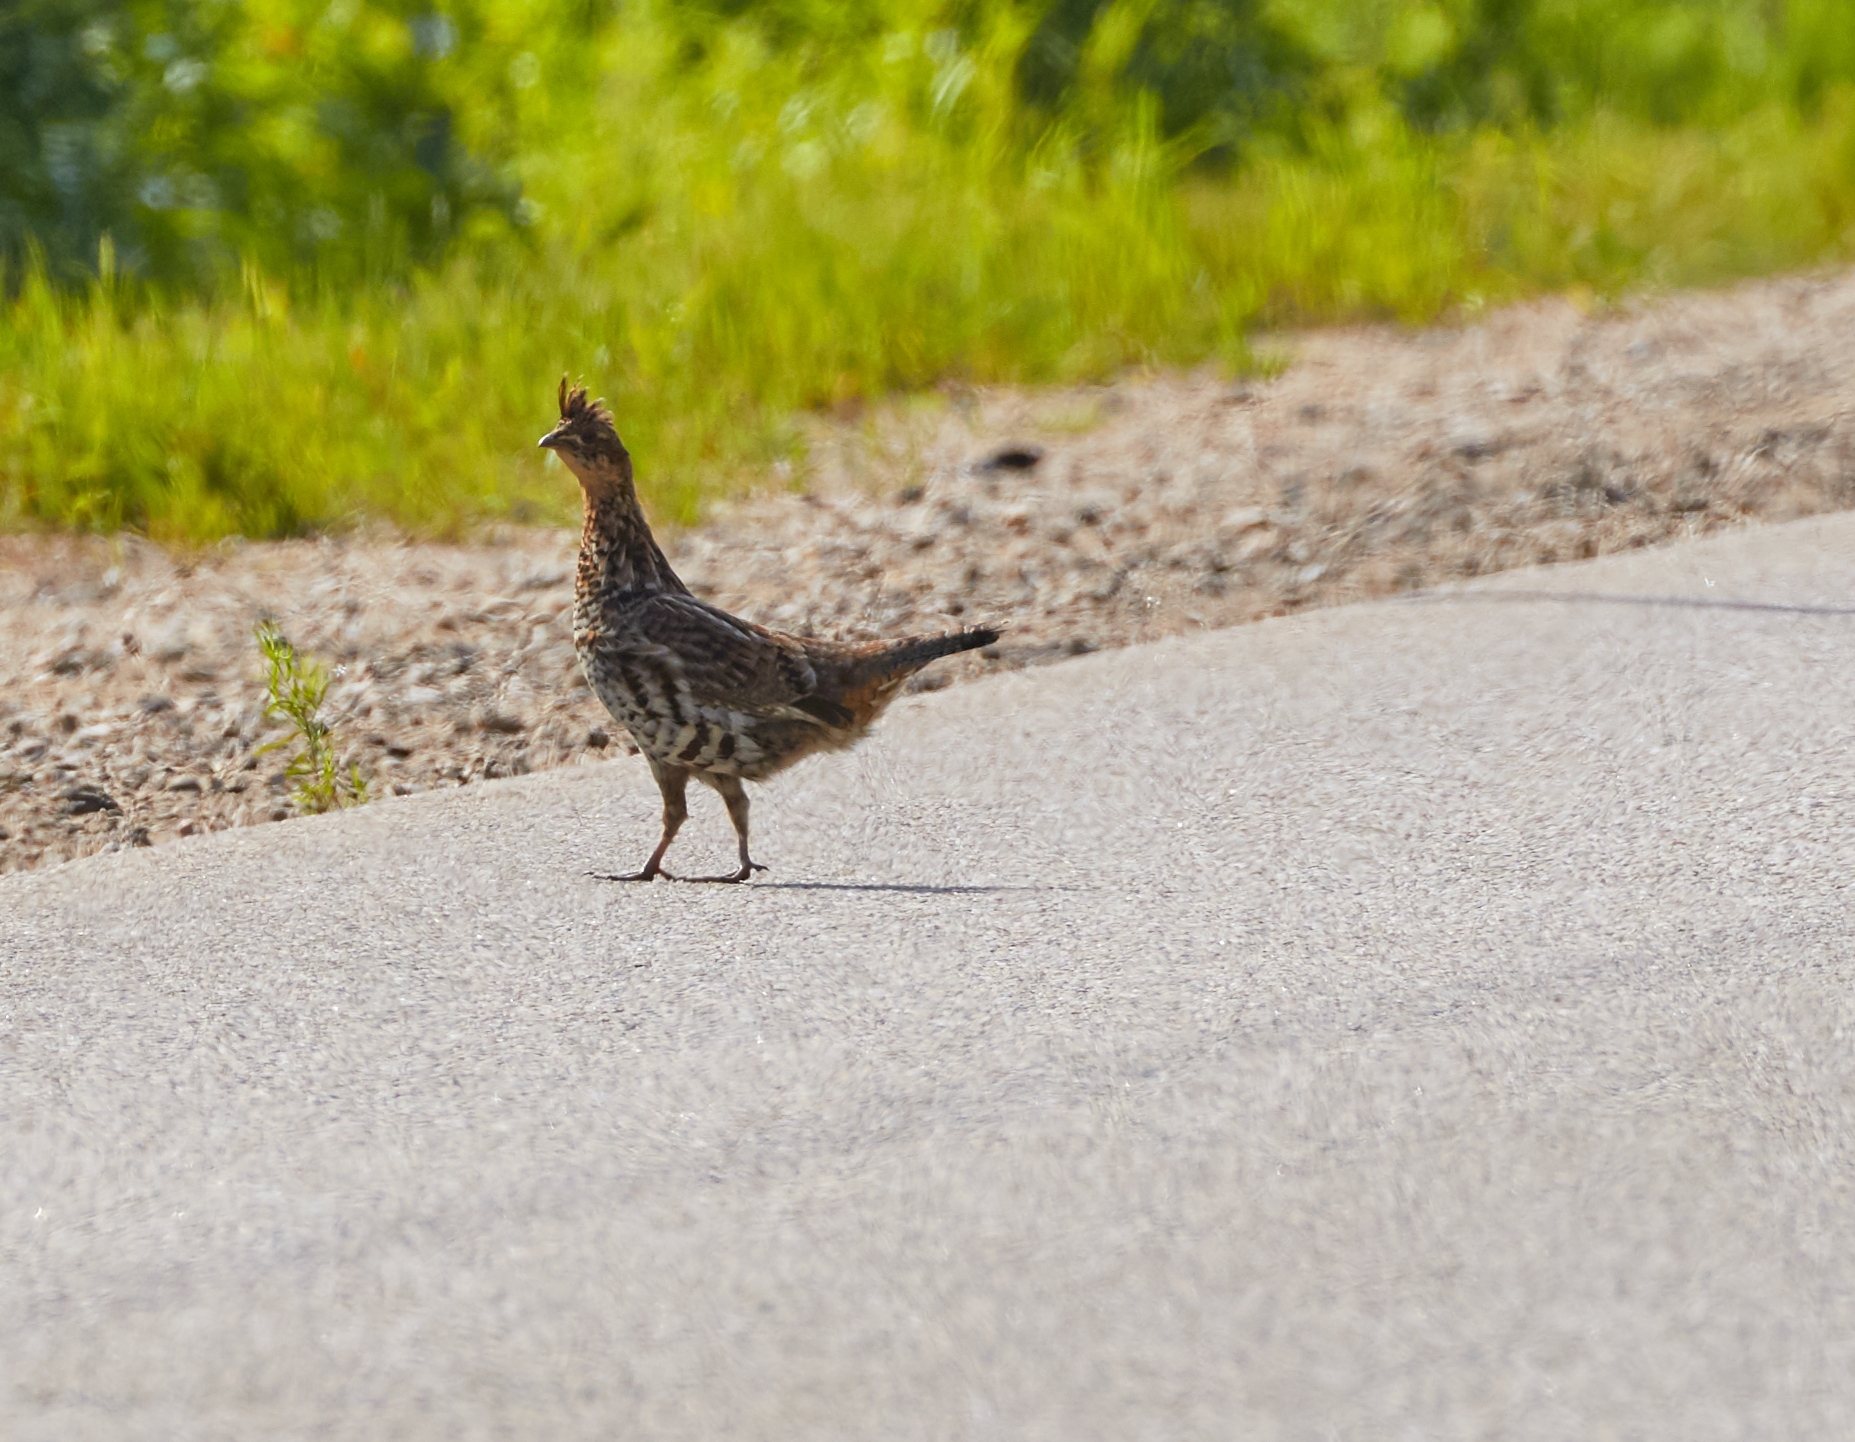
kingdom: Animalia
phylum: Chordata
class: Aves
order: Galliformes
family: Phasianidae
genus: Bonasa
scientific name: Bonasa umbellus
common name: Ruffed grouse
